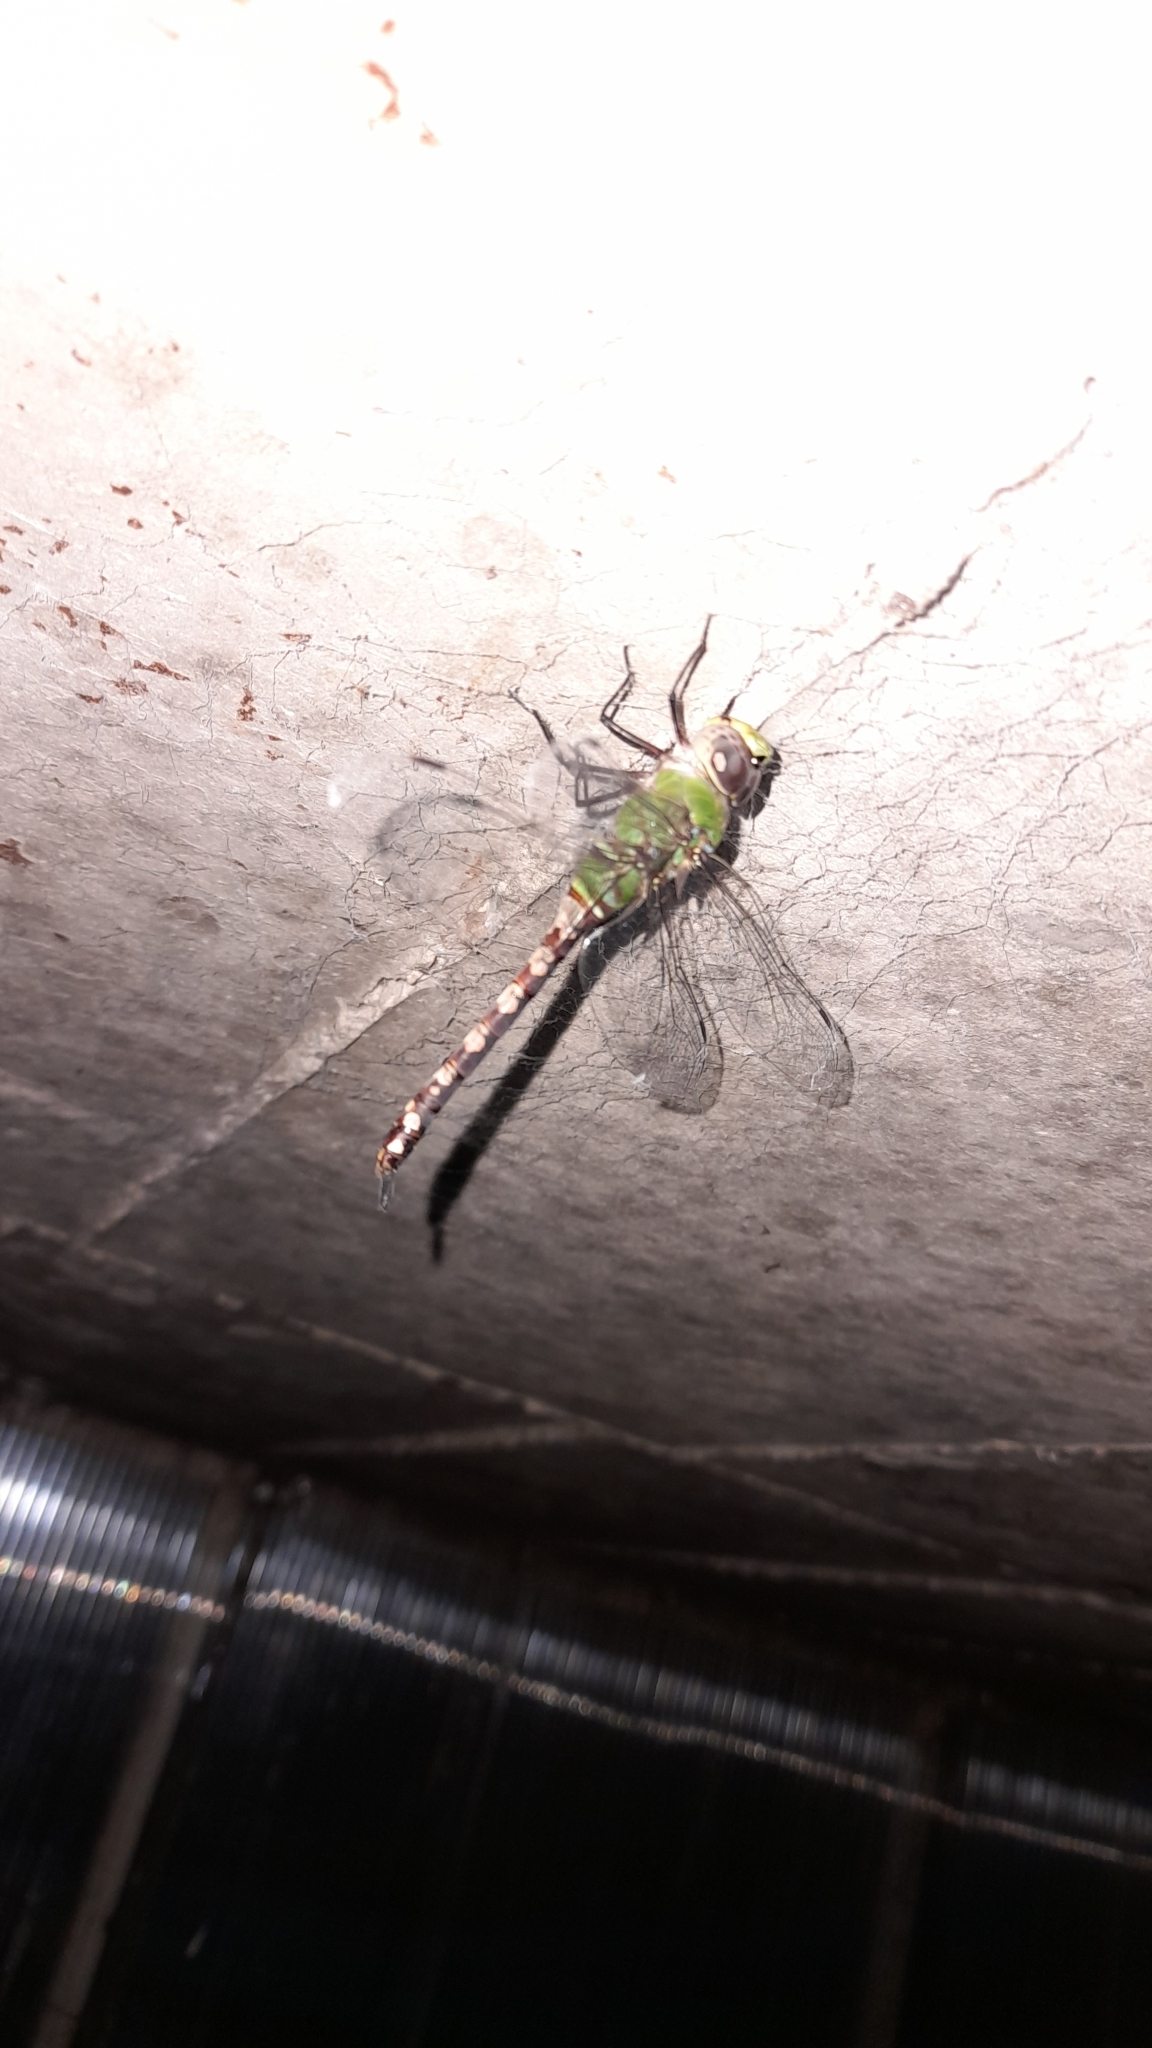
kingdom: Animalia
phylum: Arthropoda
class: Insecta
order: Odonata
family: Aeshnidae
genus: Anax
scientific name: Anax amazili
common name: Amazon darner
